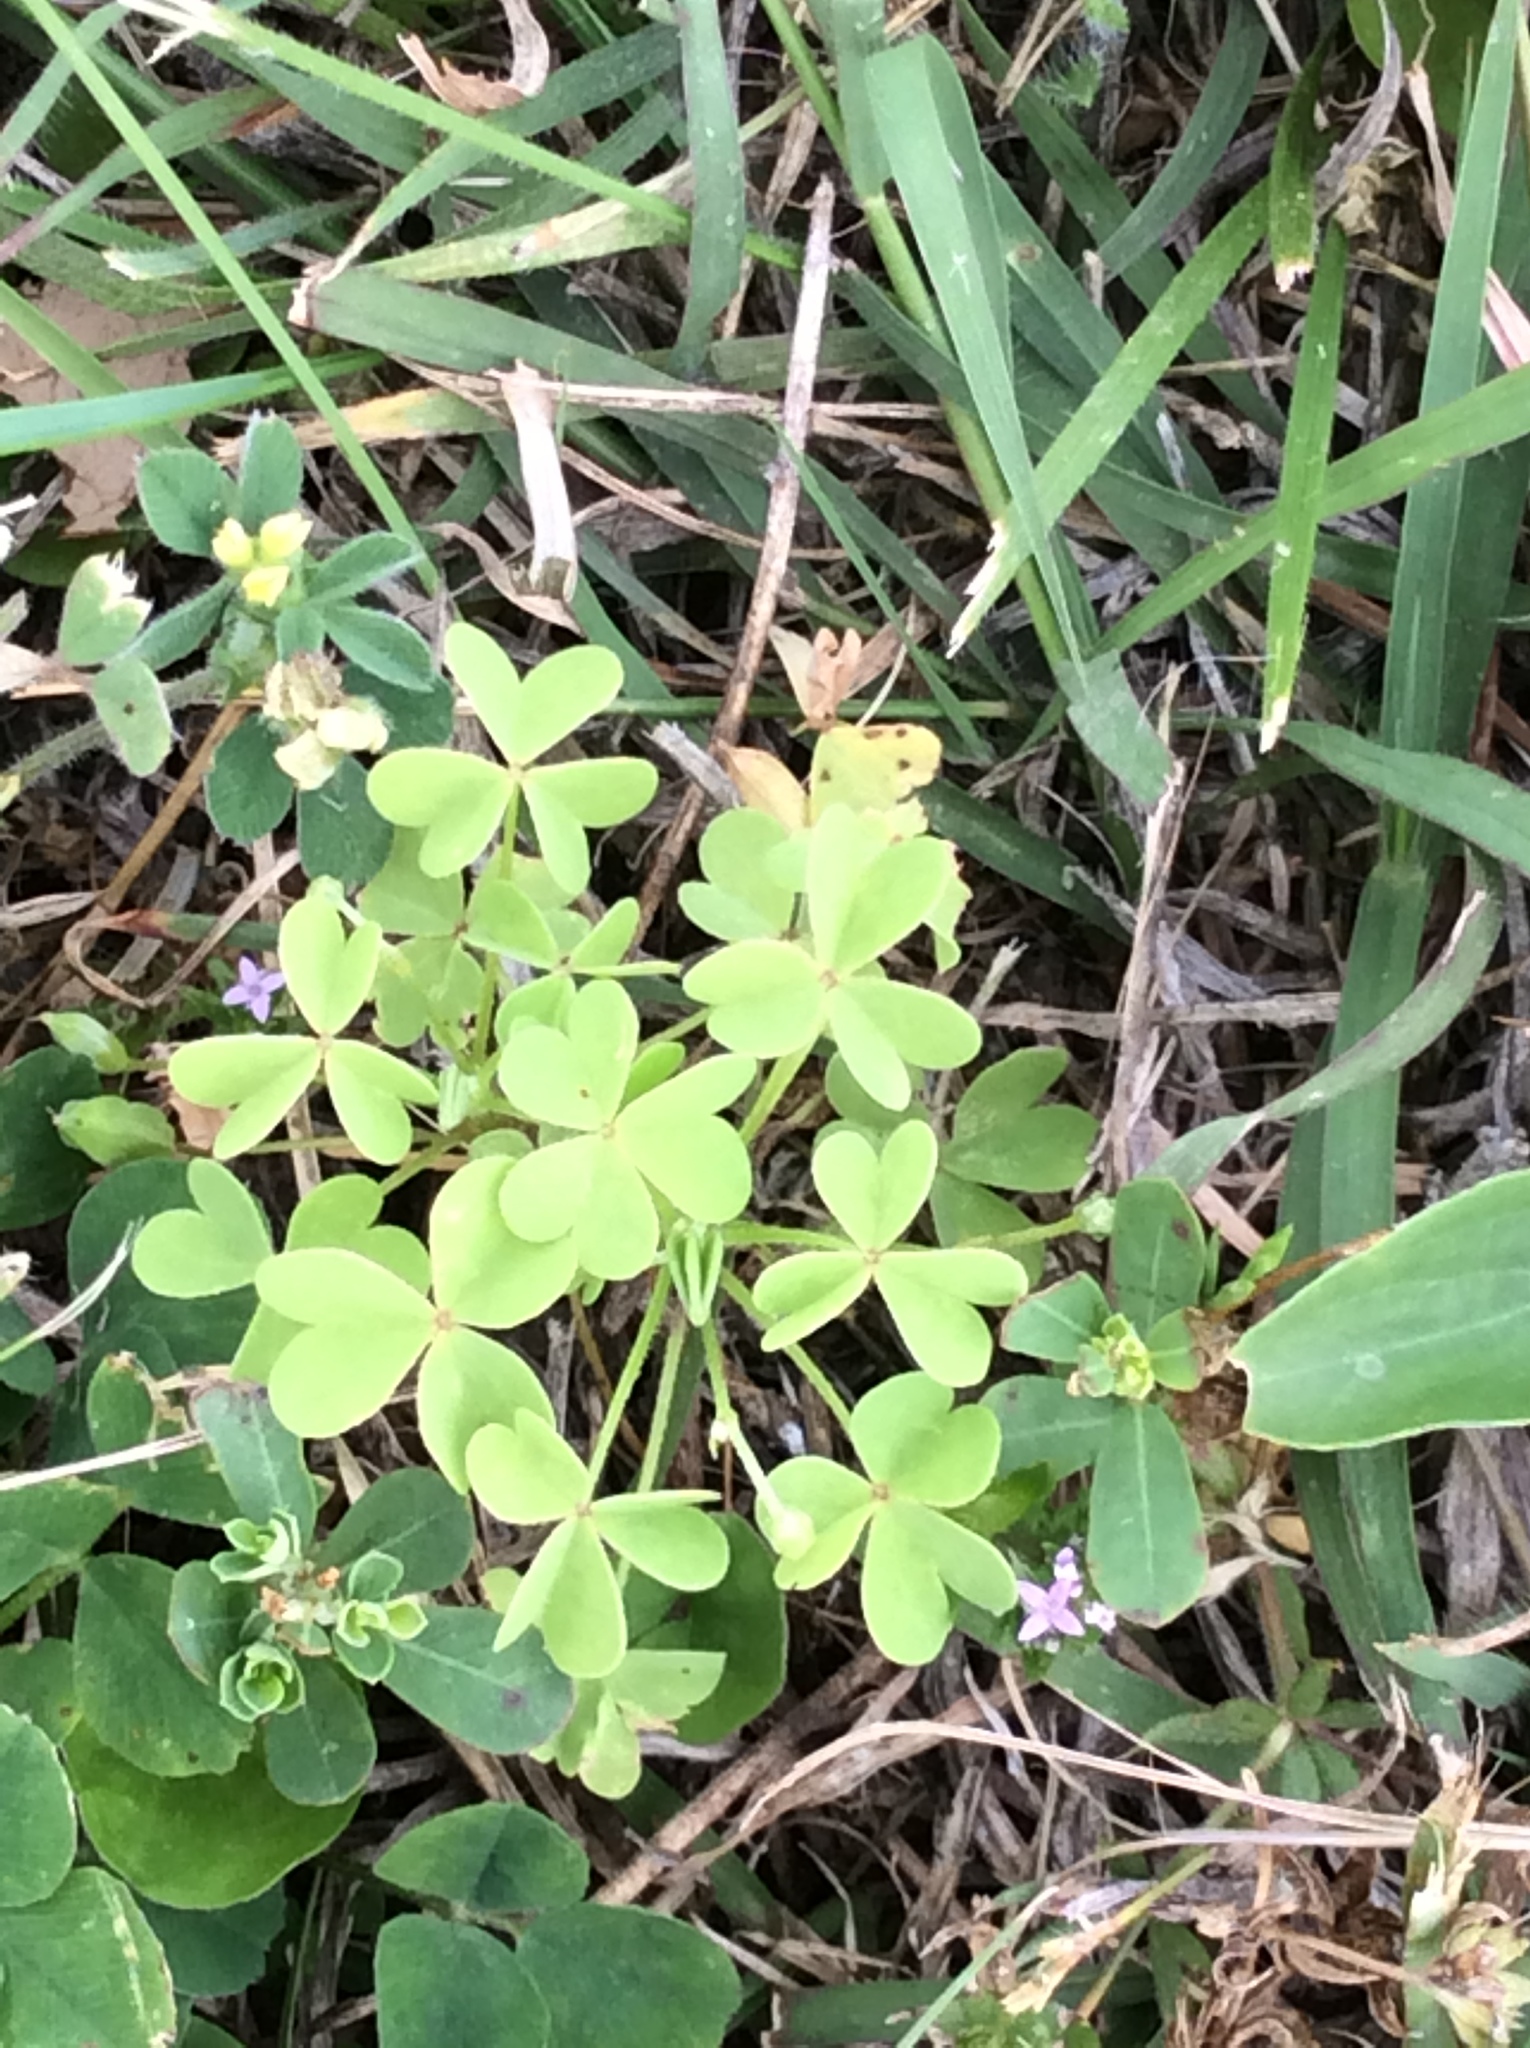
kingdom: Plantae
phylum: Tracheophyta
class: Magnoliopsida
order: Oxalidales
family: Oxalidaceae
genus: Oxalis
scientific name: Oxalis dillenii
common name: Sussex yellow-sorrel
